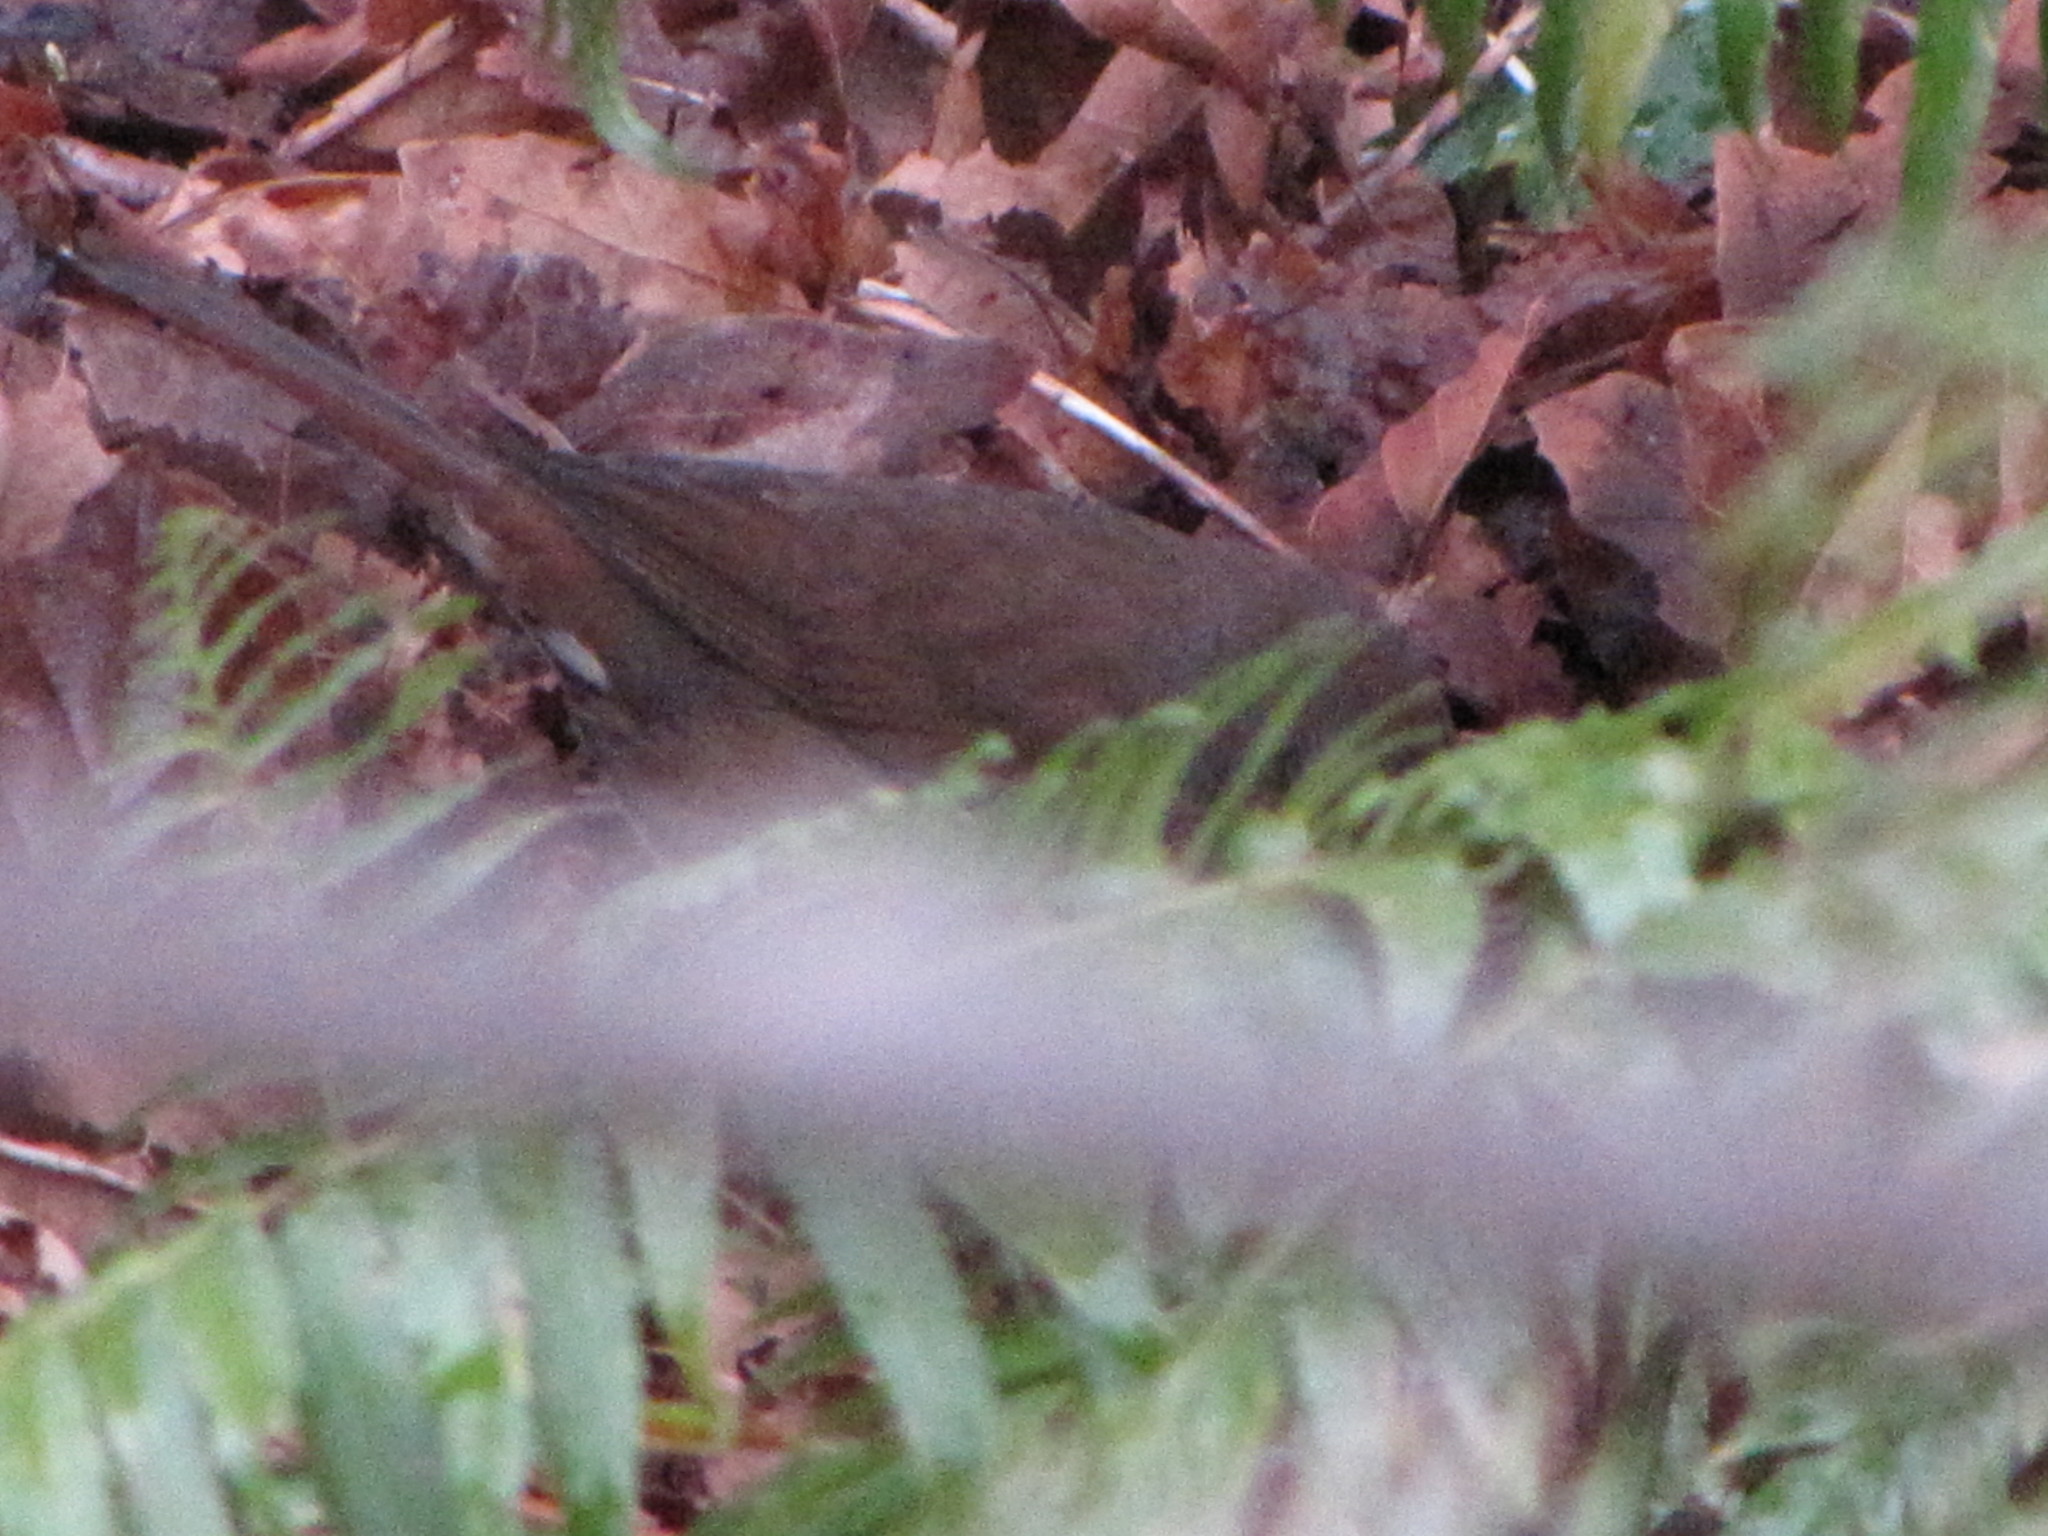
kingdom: Animalia
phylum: Chordata
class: Aves
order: Passeriformes
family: Passerellidae
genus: Passerella
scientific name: Passerella iliaca
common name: Fox sparrow
